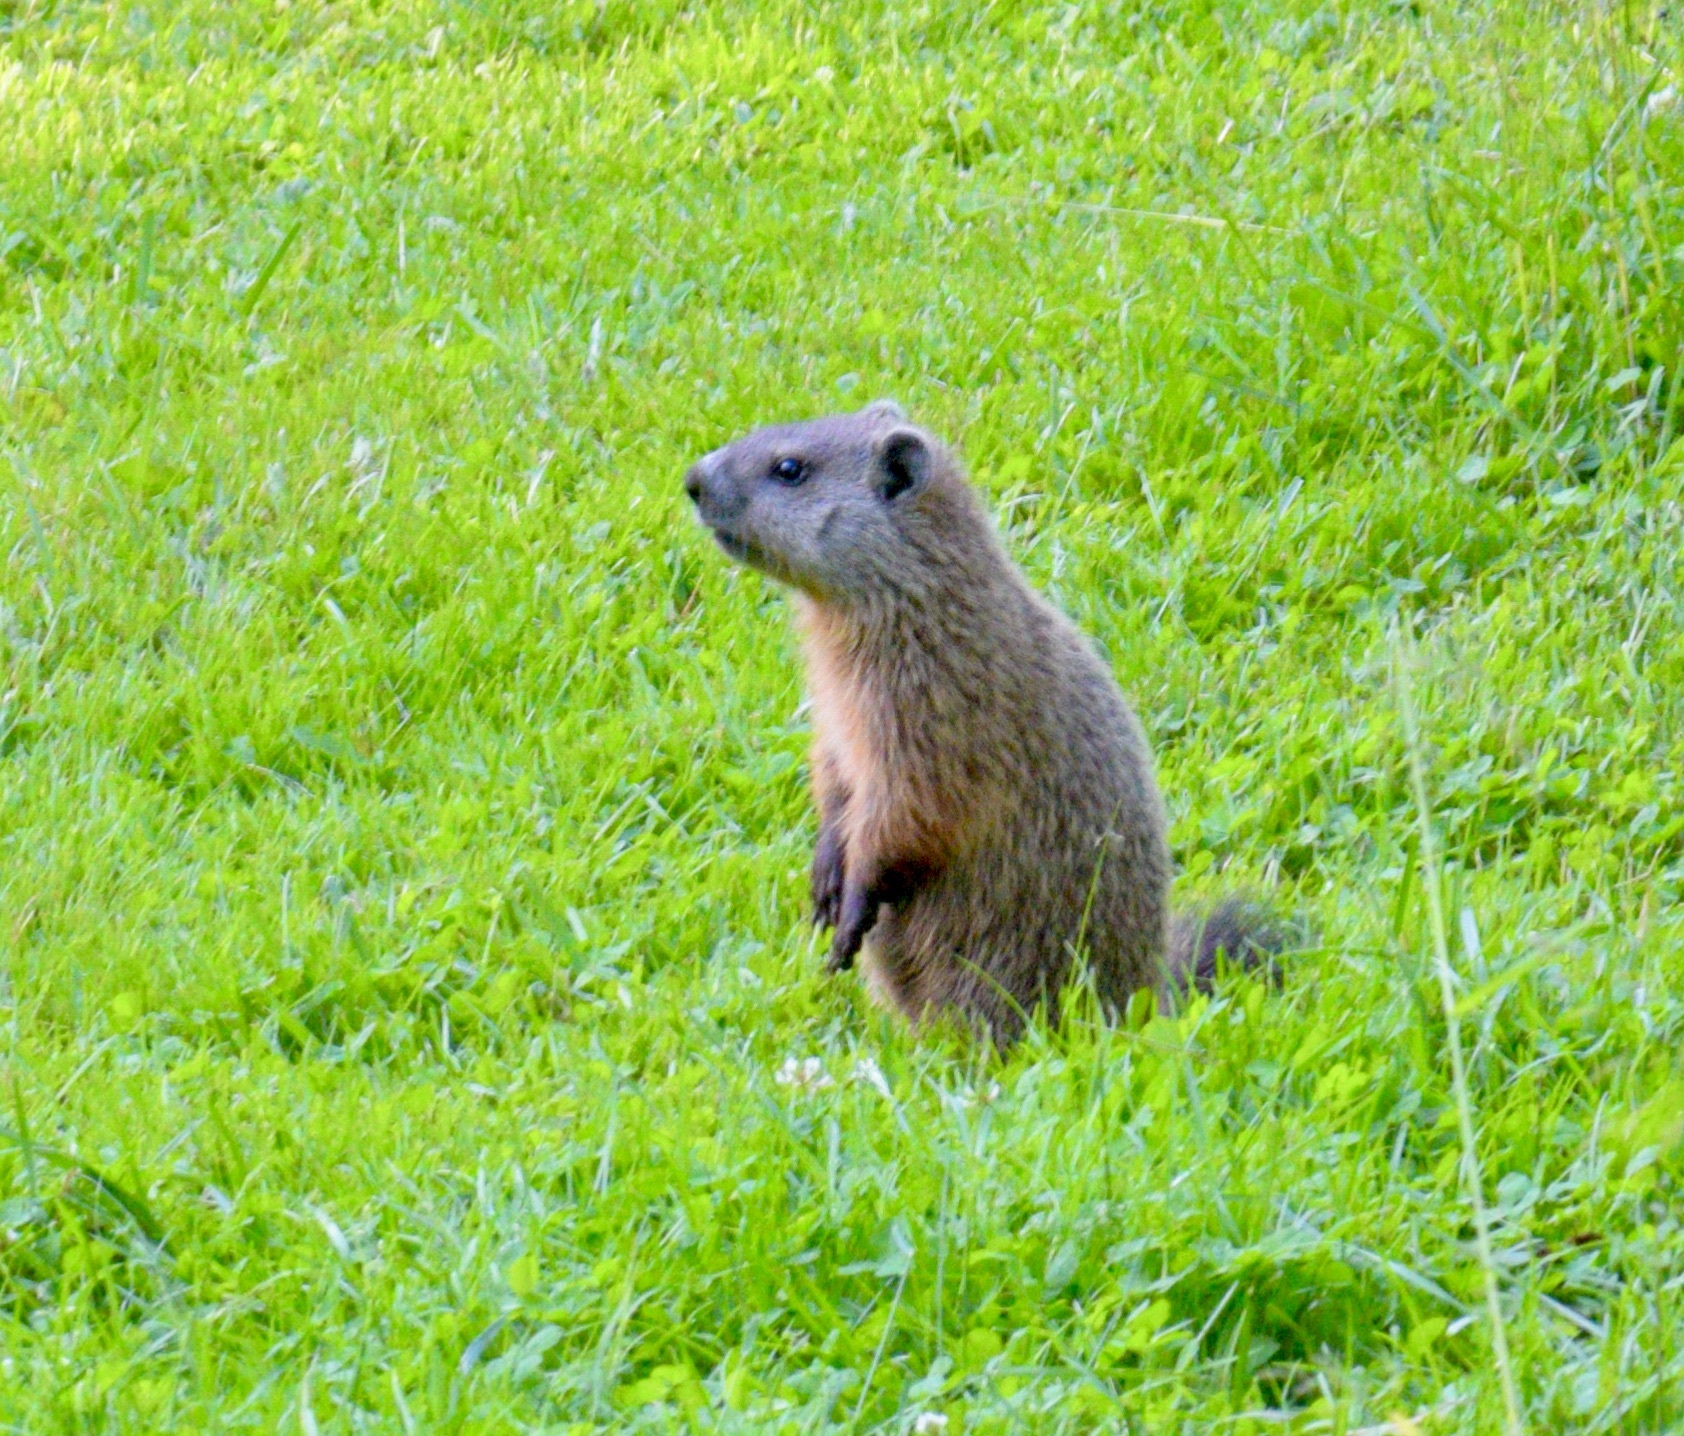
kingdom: Animalia
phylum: Chordata
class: Mammalia
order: Rodentia
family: Sciuridae
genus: Marmota
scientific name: Marmota monax
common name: Groundhog
